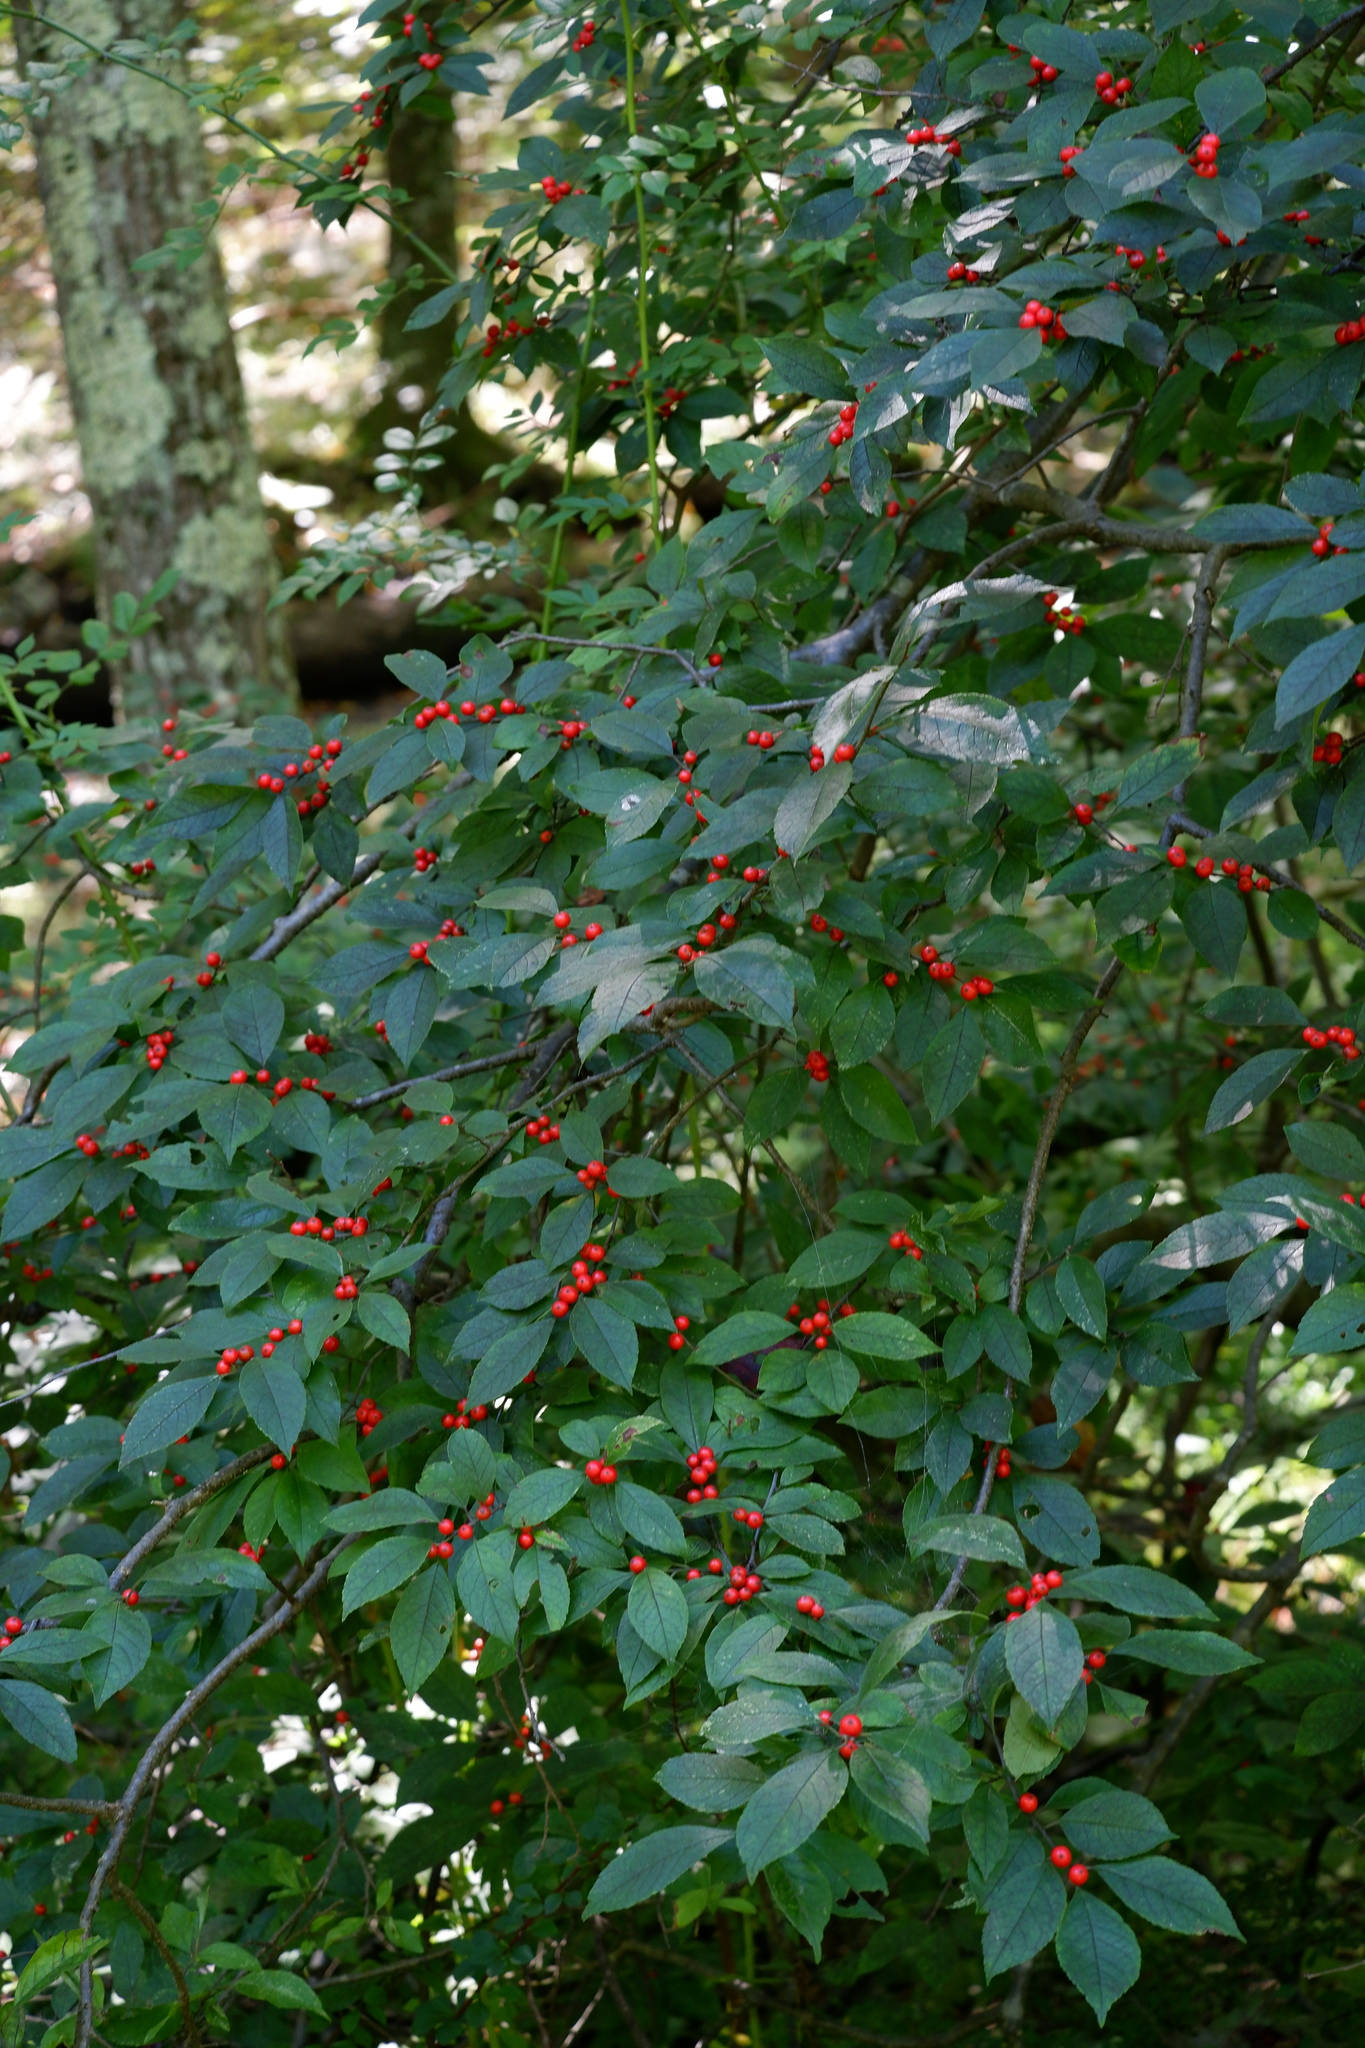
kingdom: Plantae
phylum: Tracheophyta
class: Magnoliopsida
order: Aquifoliales
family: Aquifoliaceae
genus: Ilex
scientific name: Ilex verticillata
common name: Virginia winterberry
